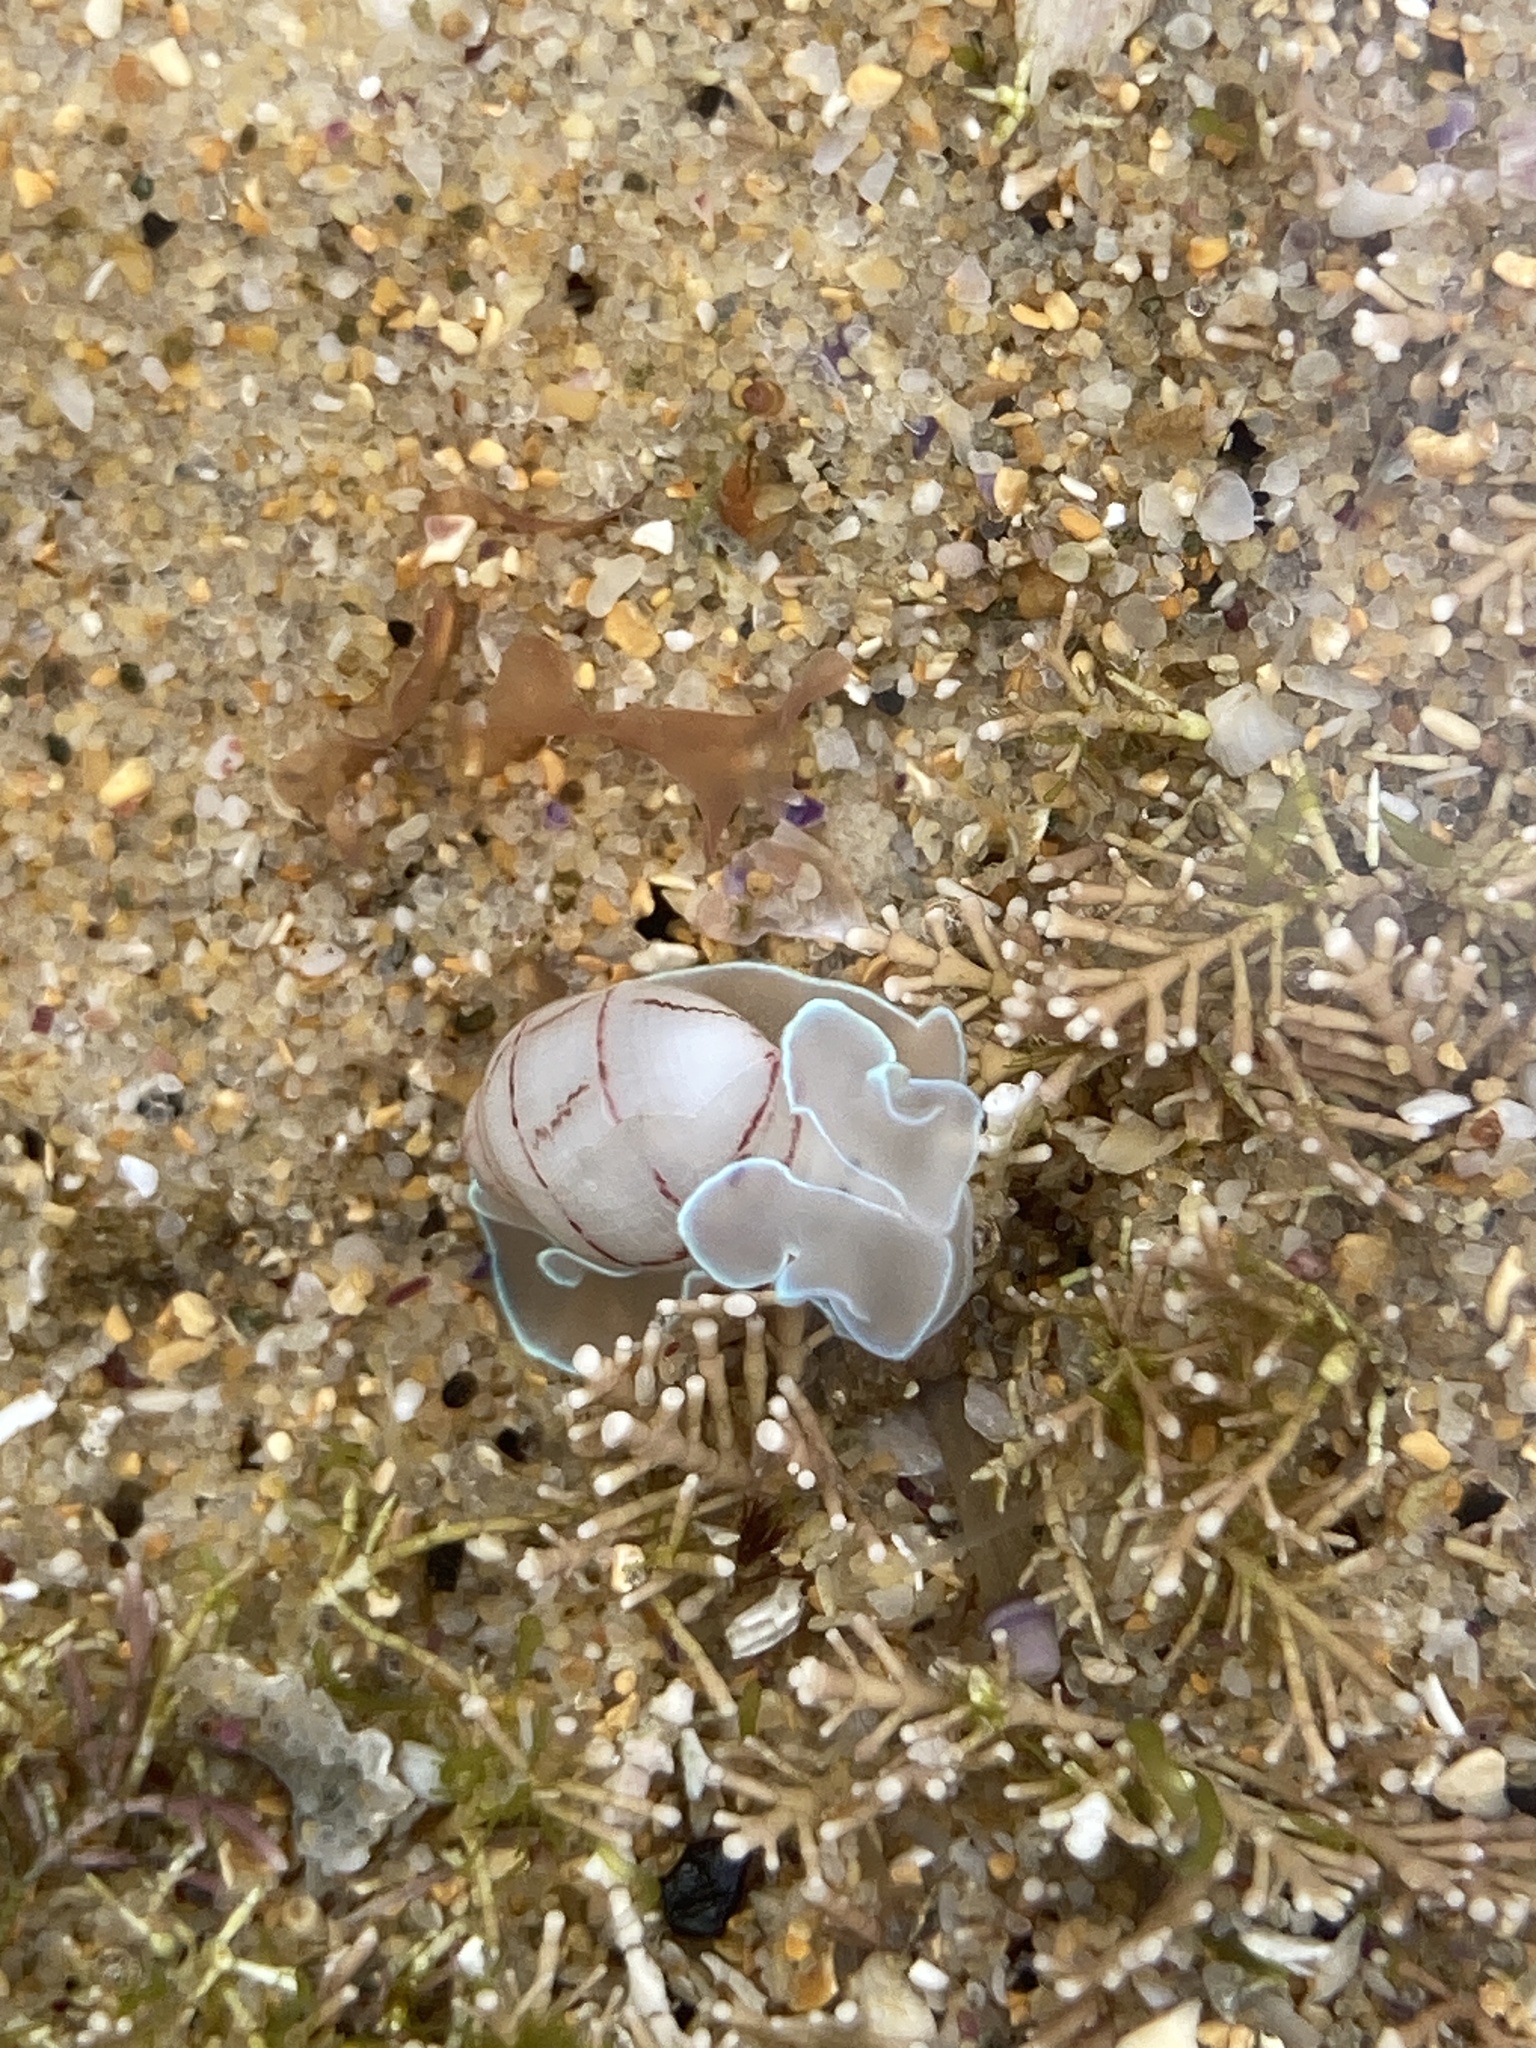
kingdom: Animalia
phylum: Mollusca
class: Gastropoda
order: Cephalaspidea
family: Aplustridae
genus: Bullina
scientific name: Bullina lineata
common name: Lined bubble snail
